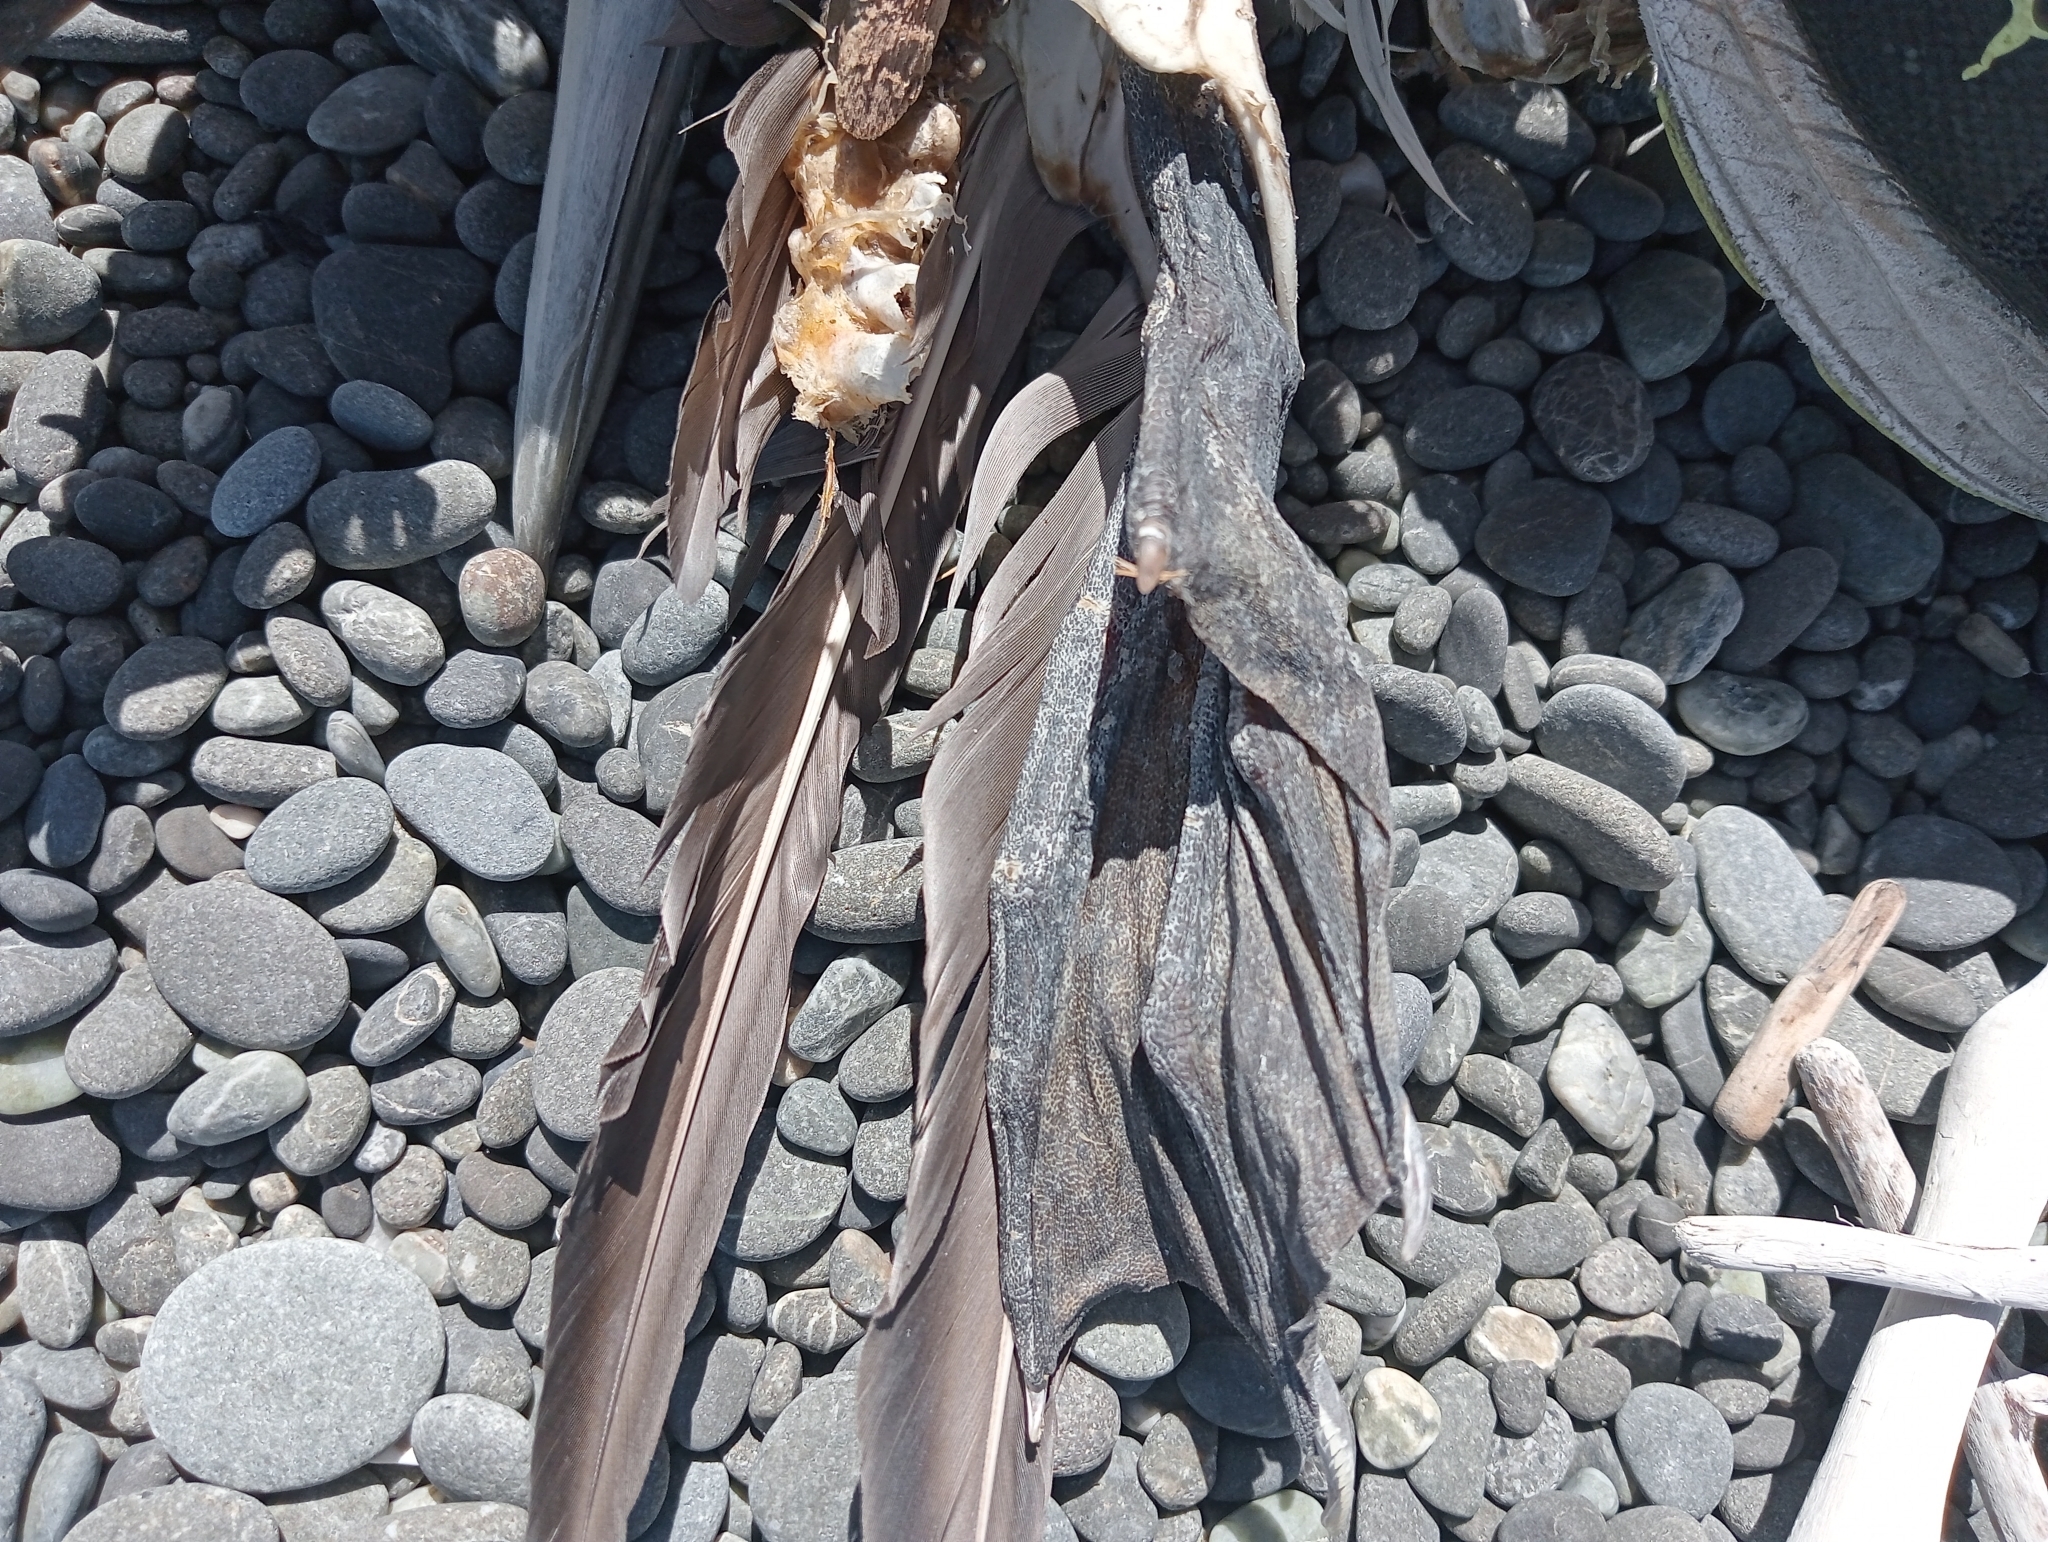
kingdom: Animalia
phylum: Chordata
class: Aves
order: Suliformes
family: Sulidae
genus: Morus
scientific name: Morus serrator
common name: Australasian gannet
